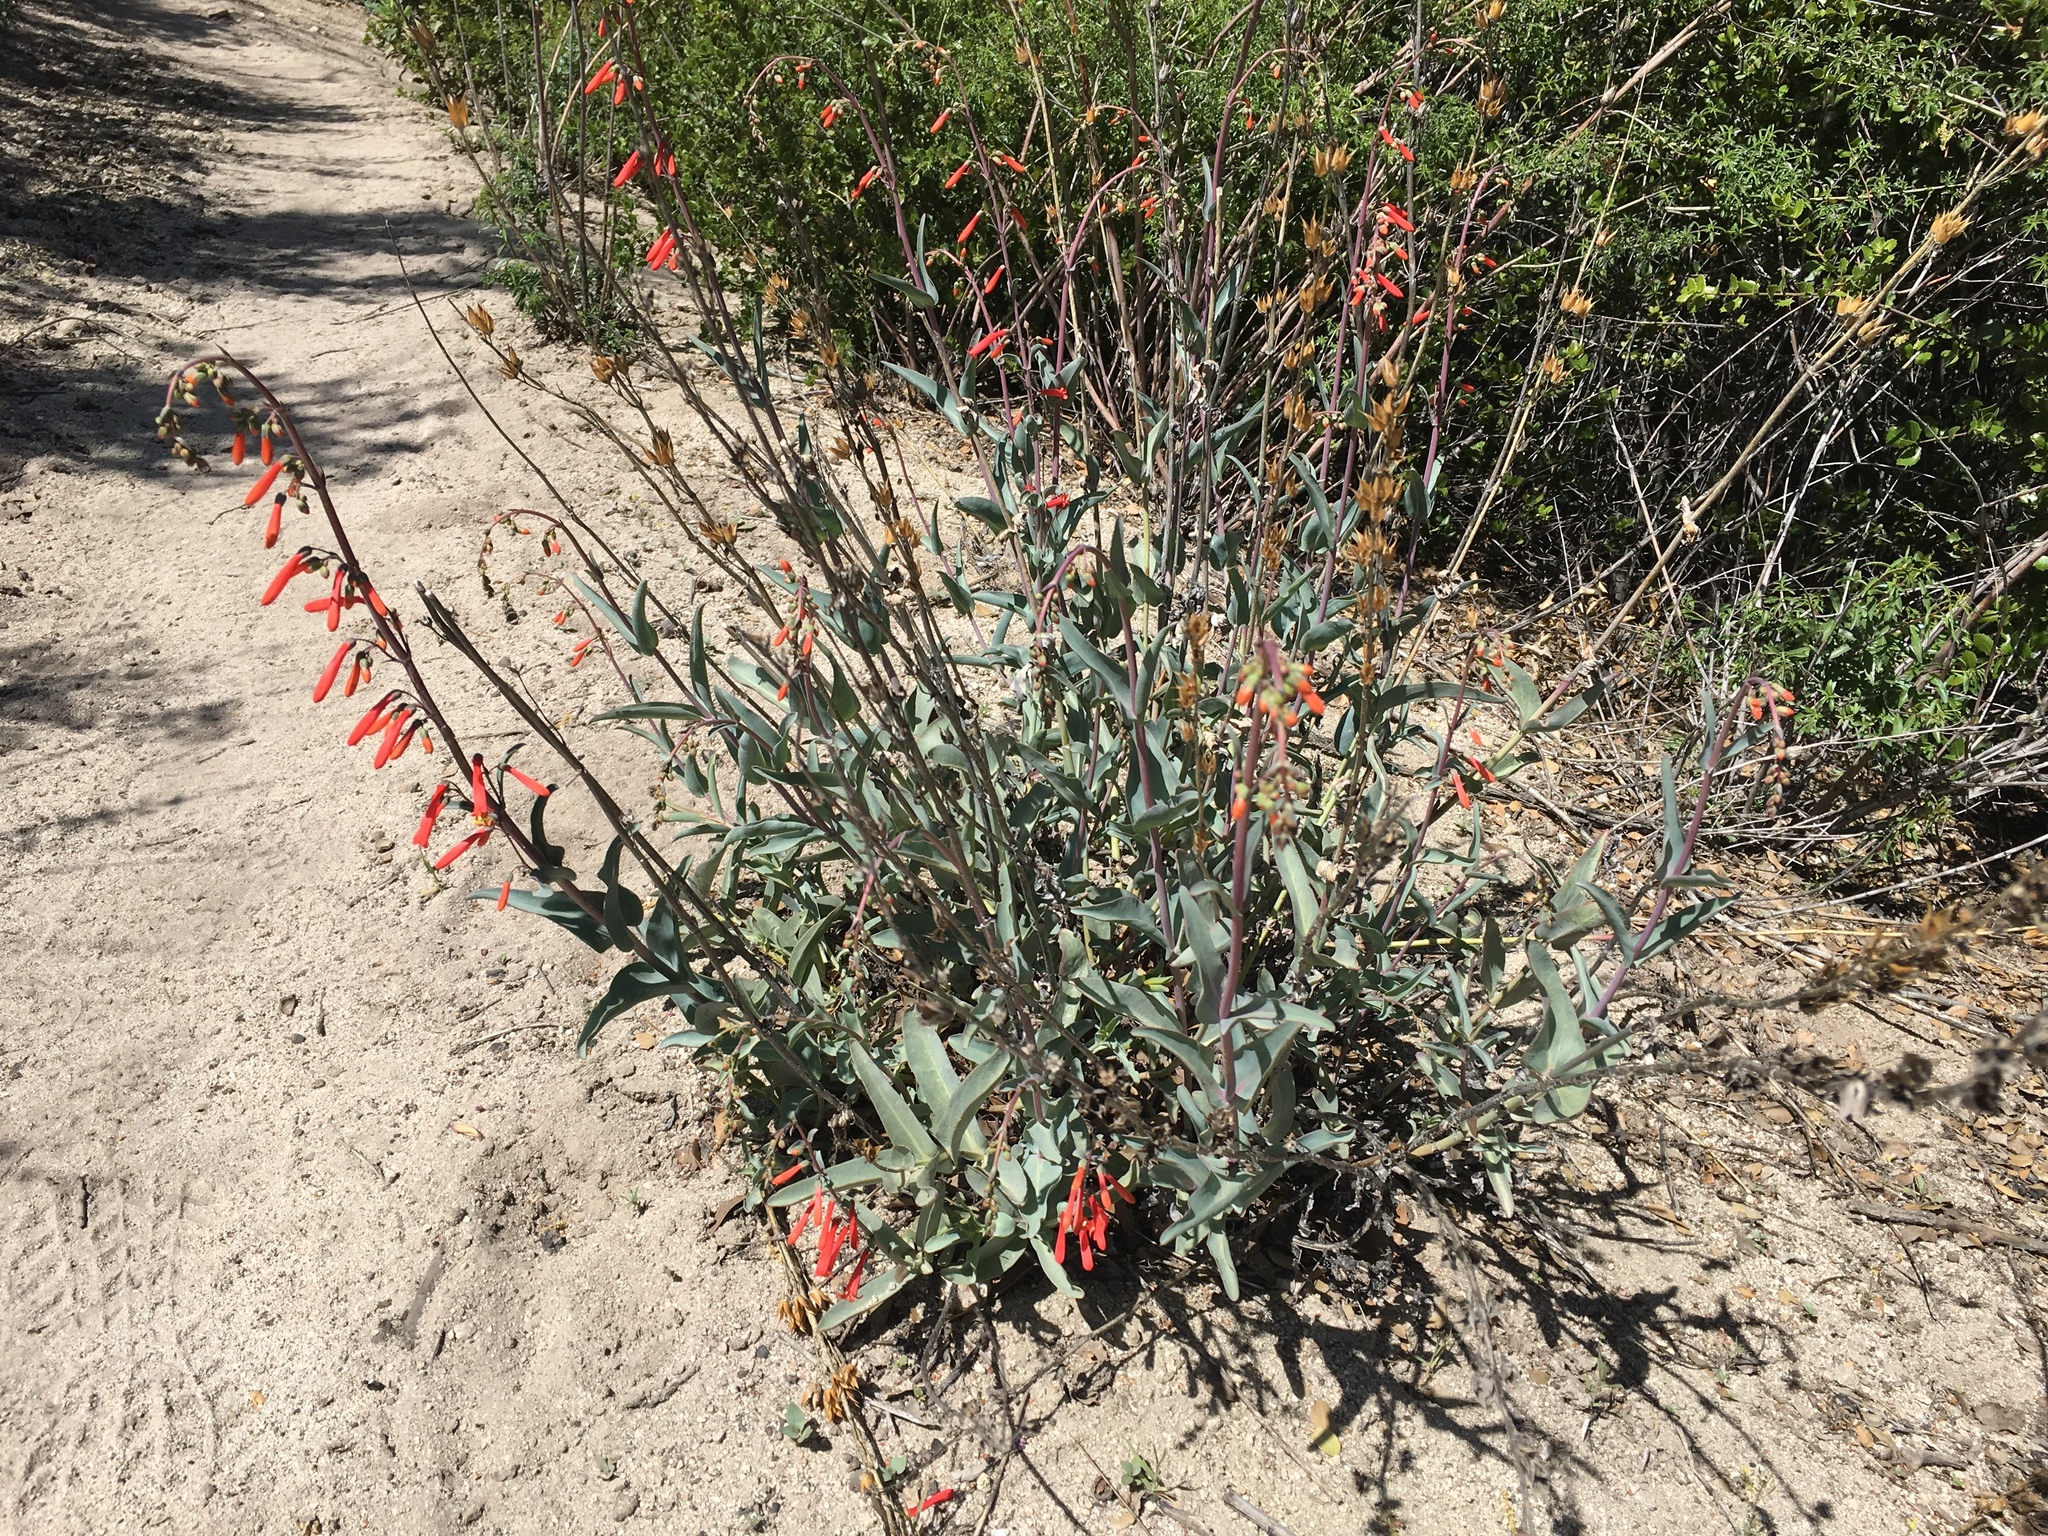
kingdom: Plantae
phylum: Tracheophyta
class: Magnoliopsida
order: Lamiales
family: Plantaginaceae
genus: Penstemon
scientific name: Penstemon centranthifolius
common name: Scarlet bugler
